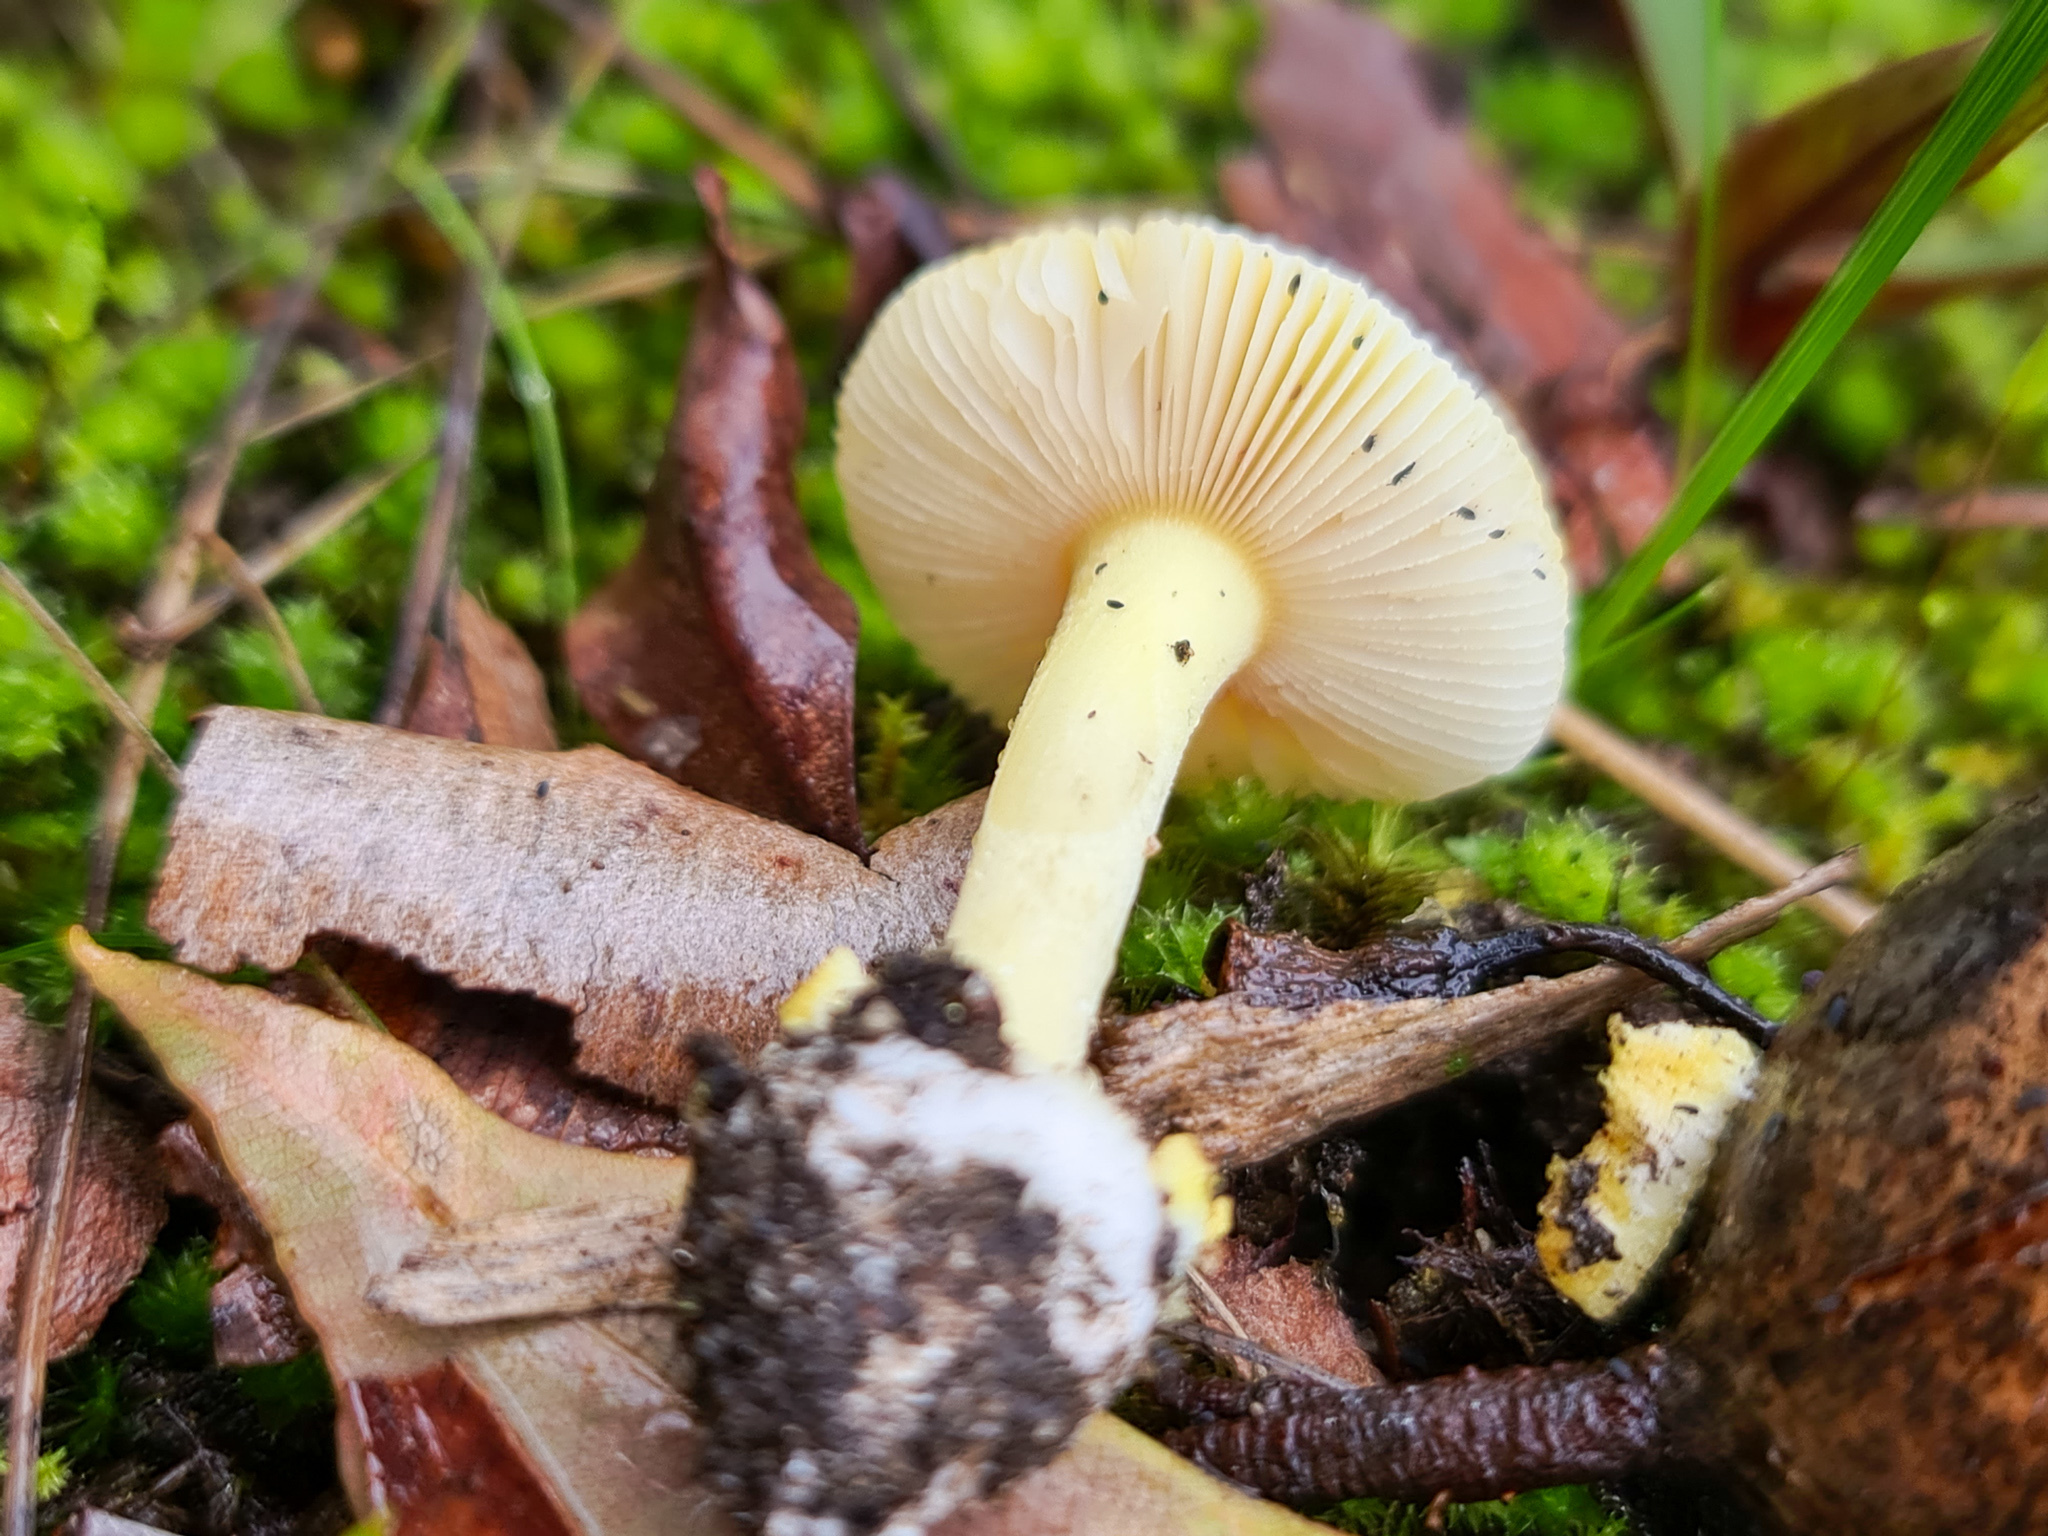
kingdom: Fungi
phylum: Basidiomycota
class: Agaricomycetes
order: Agaricales
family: Amanitaceae
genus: Amanita
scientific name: Amanita xanthocephala
